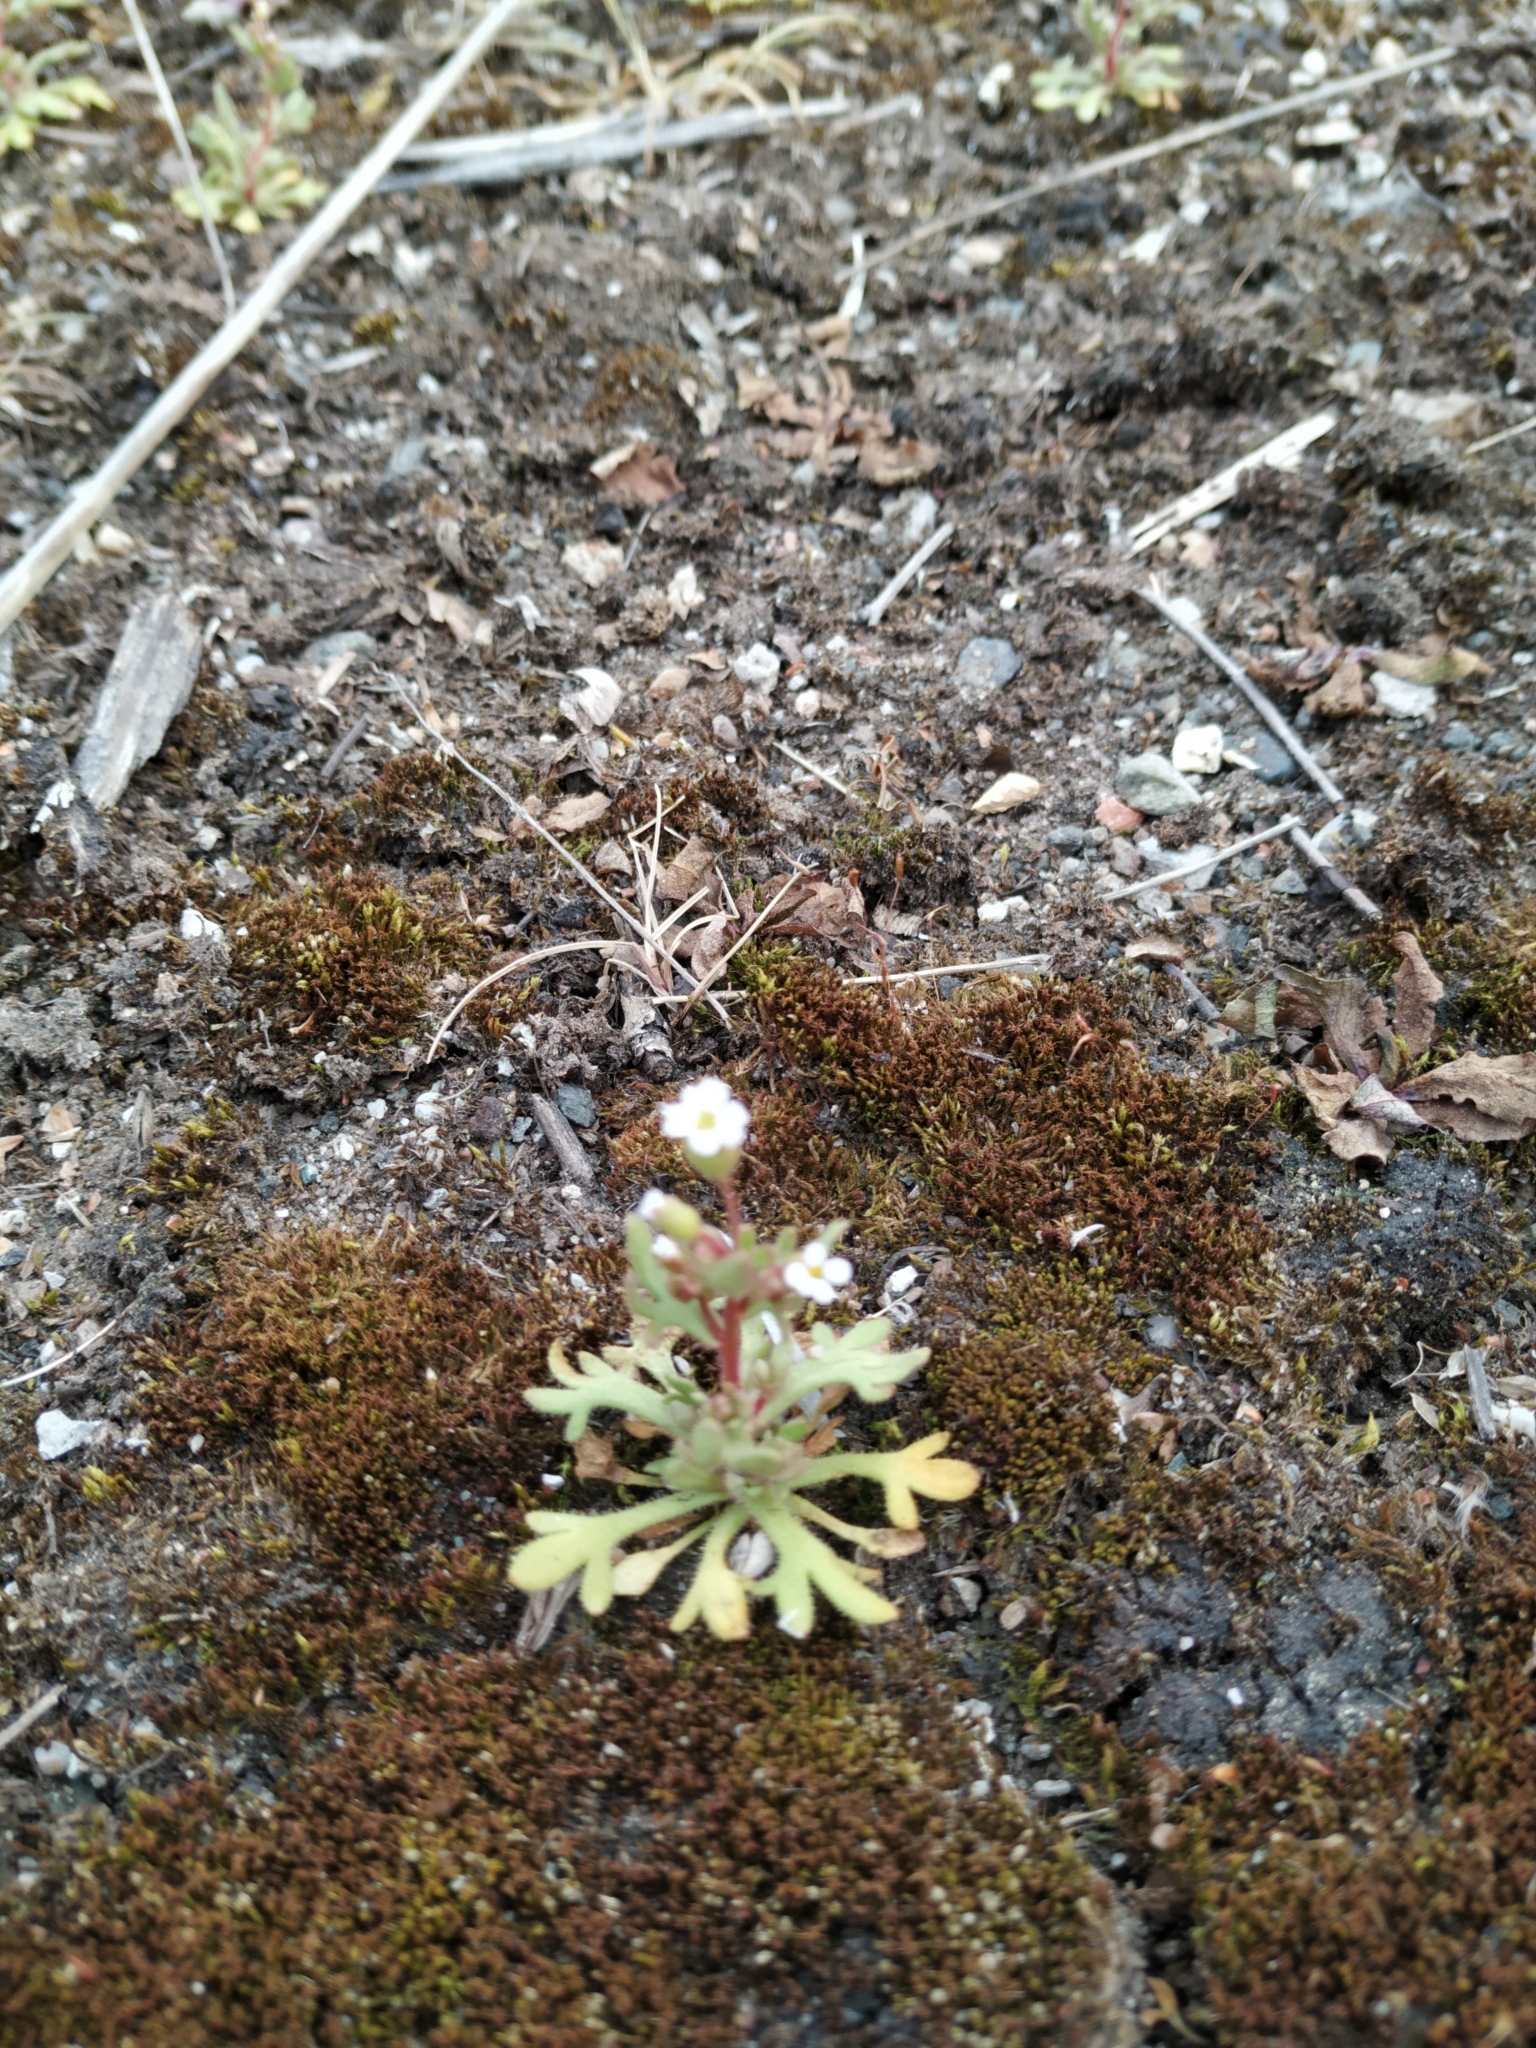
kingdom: Plantae
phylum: Tracheophyta
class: Magnoliopsida
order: Saxifragales
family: Saxifragaceae
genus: Saxifraga
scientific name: Saxifraga tridactylites
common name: Rue-leaved saxifrage
